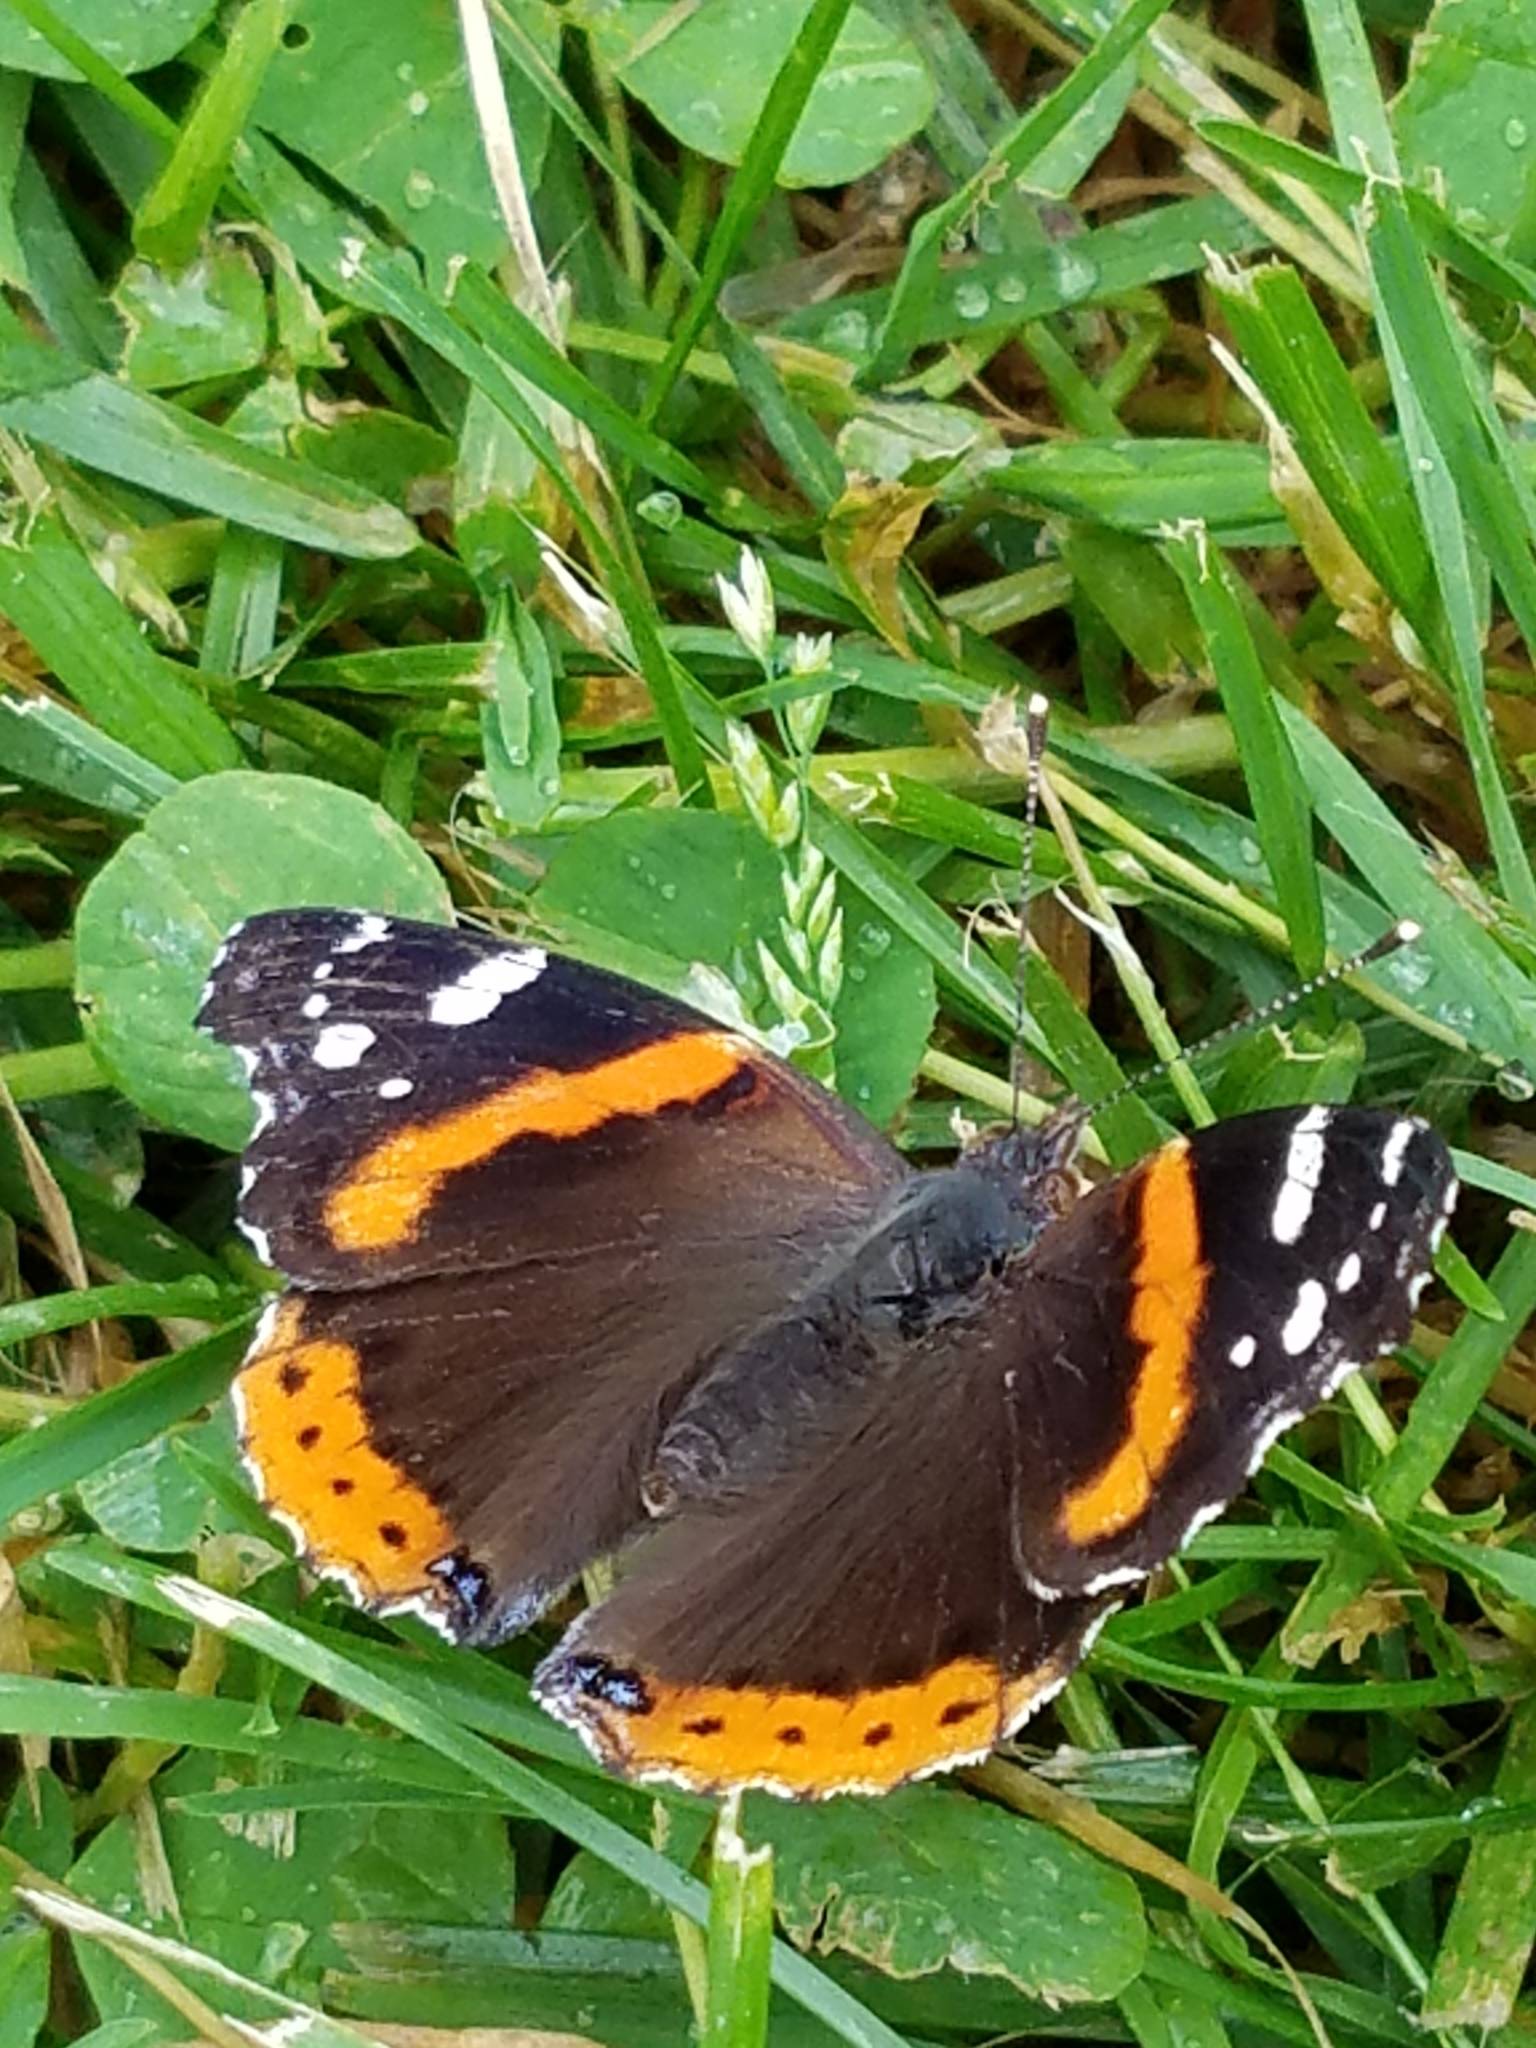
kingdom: Animalia
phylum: Arthropoda
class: Insecta
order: Lepidoptera
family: Nymphalidae
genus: Vanessa
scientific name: Vanessa atalanta
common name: Red admiral
